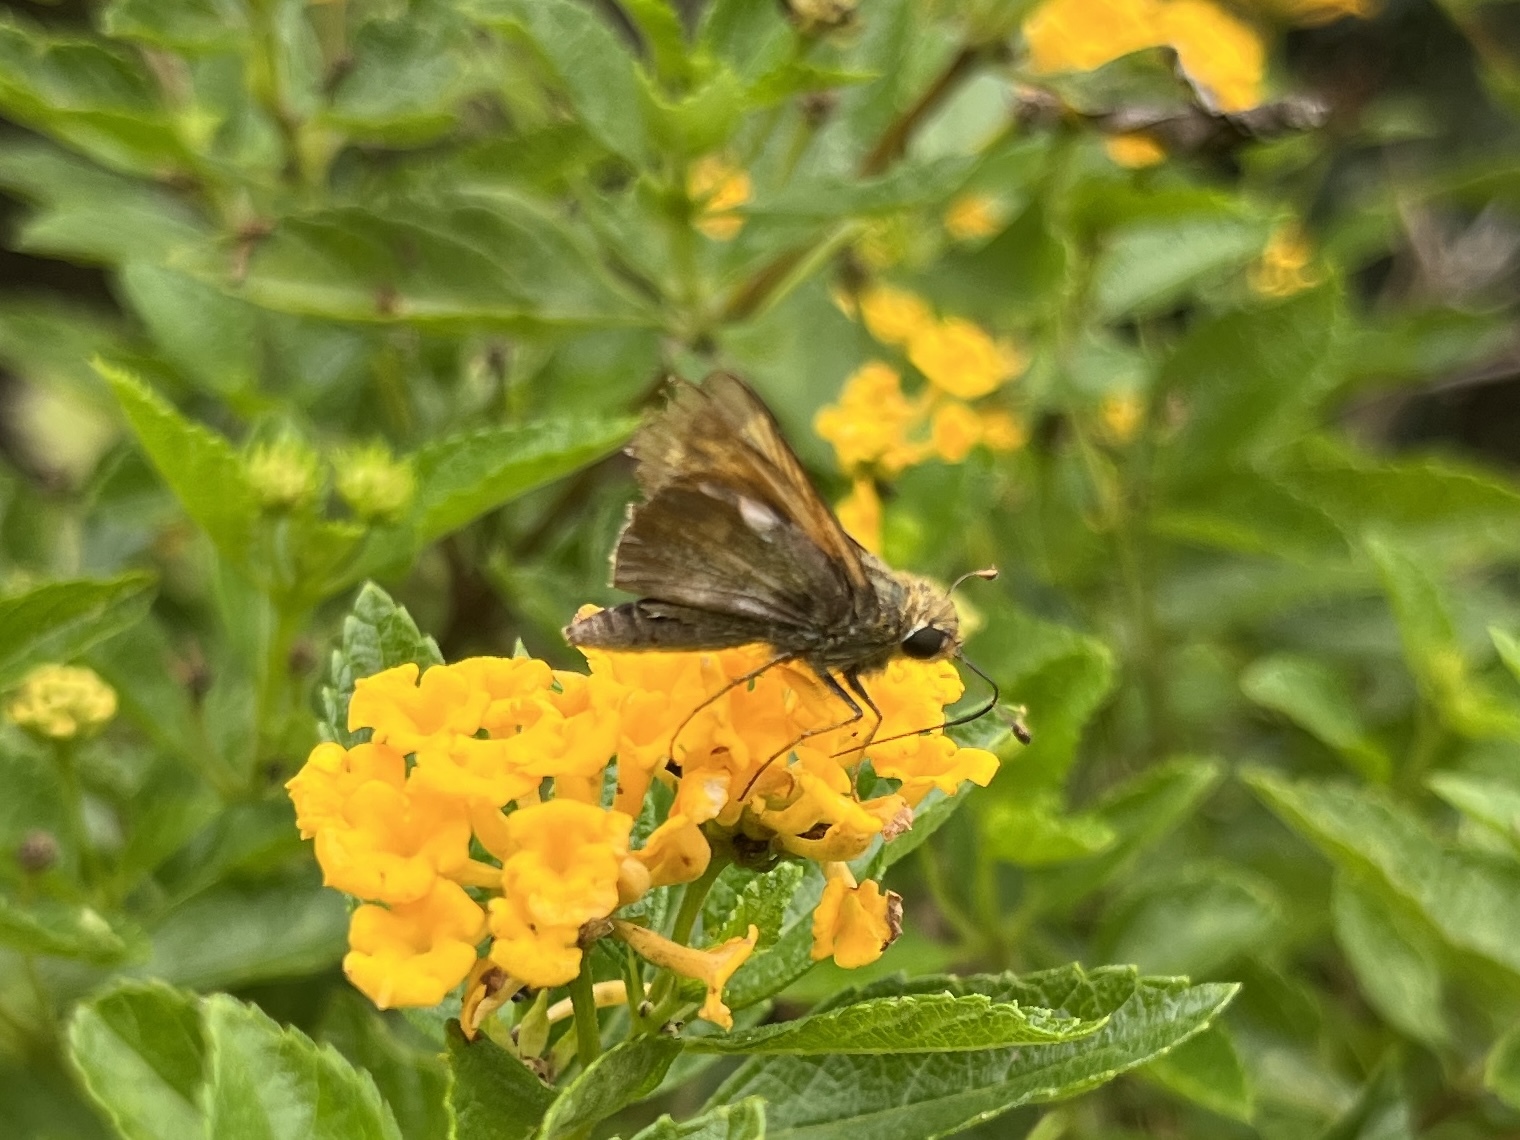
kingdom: Animalia
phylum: Arthropoda
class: Insecta
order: Lepidoptera
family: Hesperiidae
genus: Atalopedes
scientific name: Atalopedes
